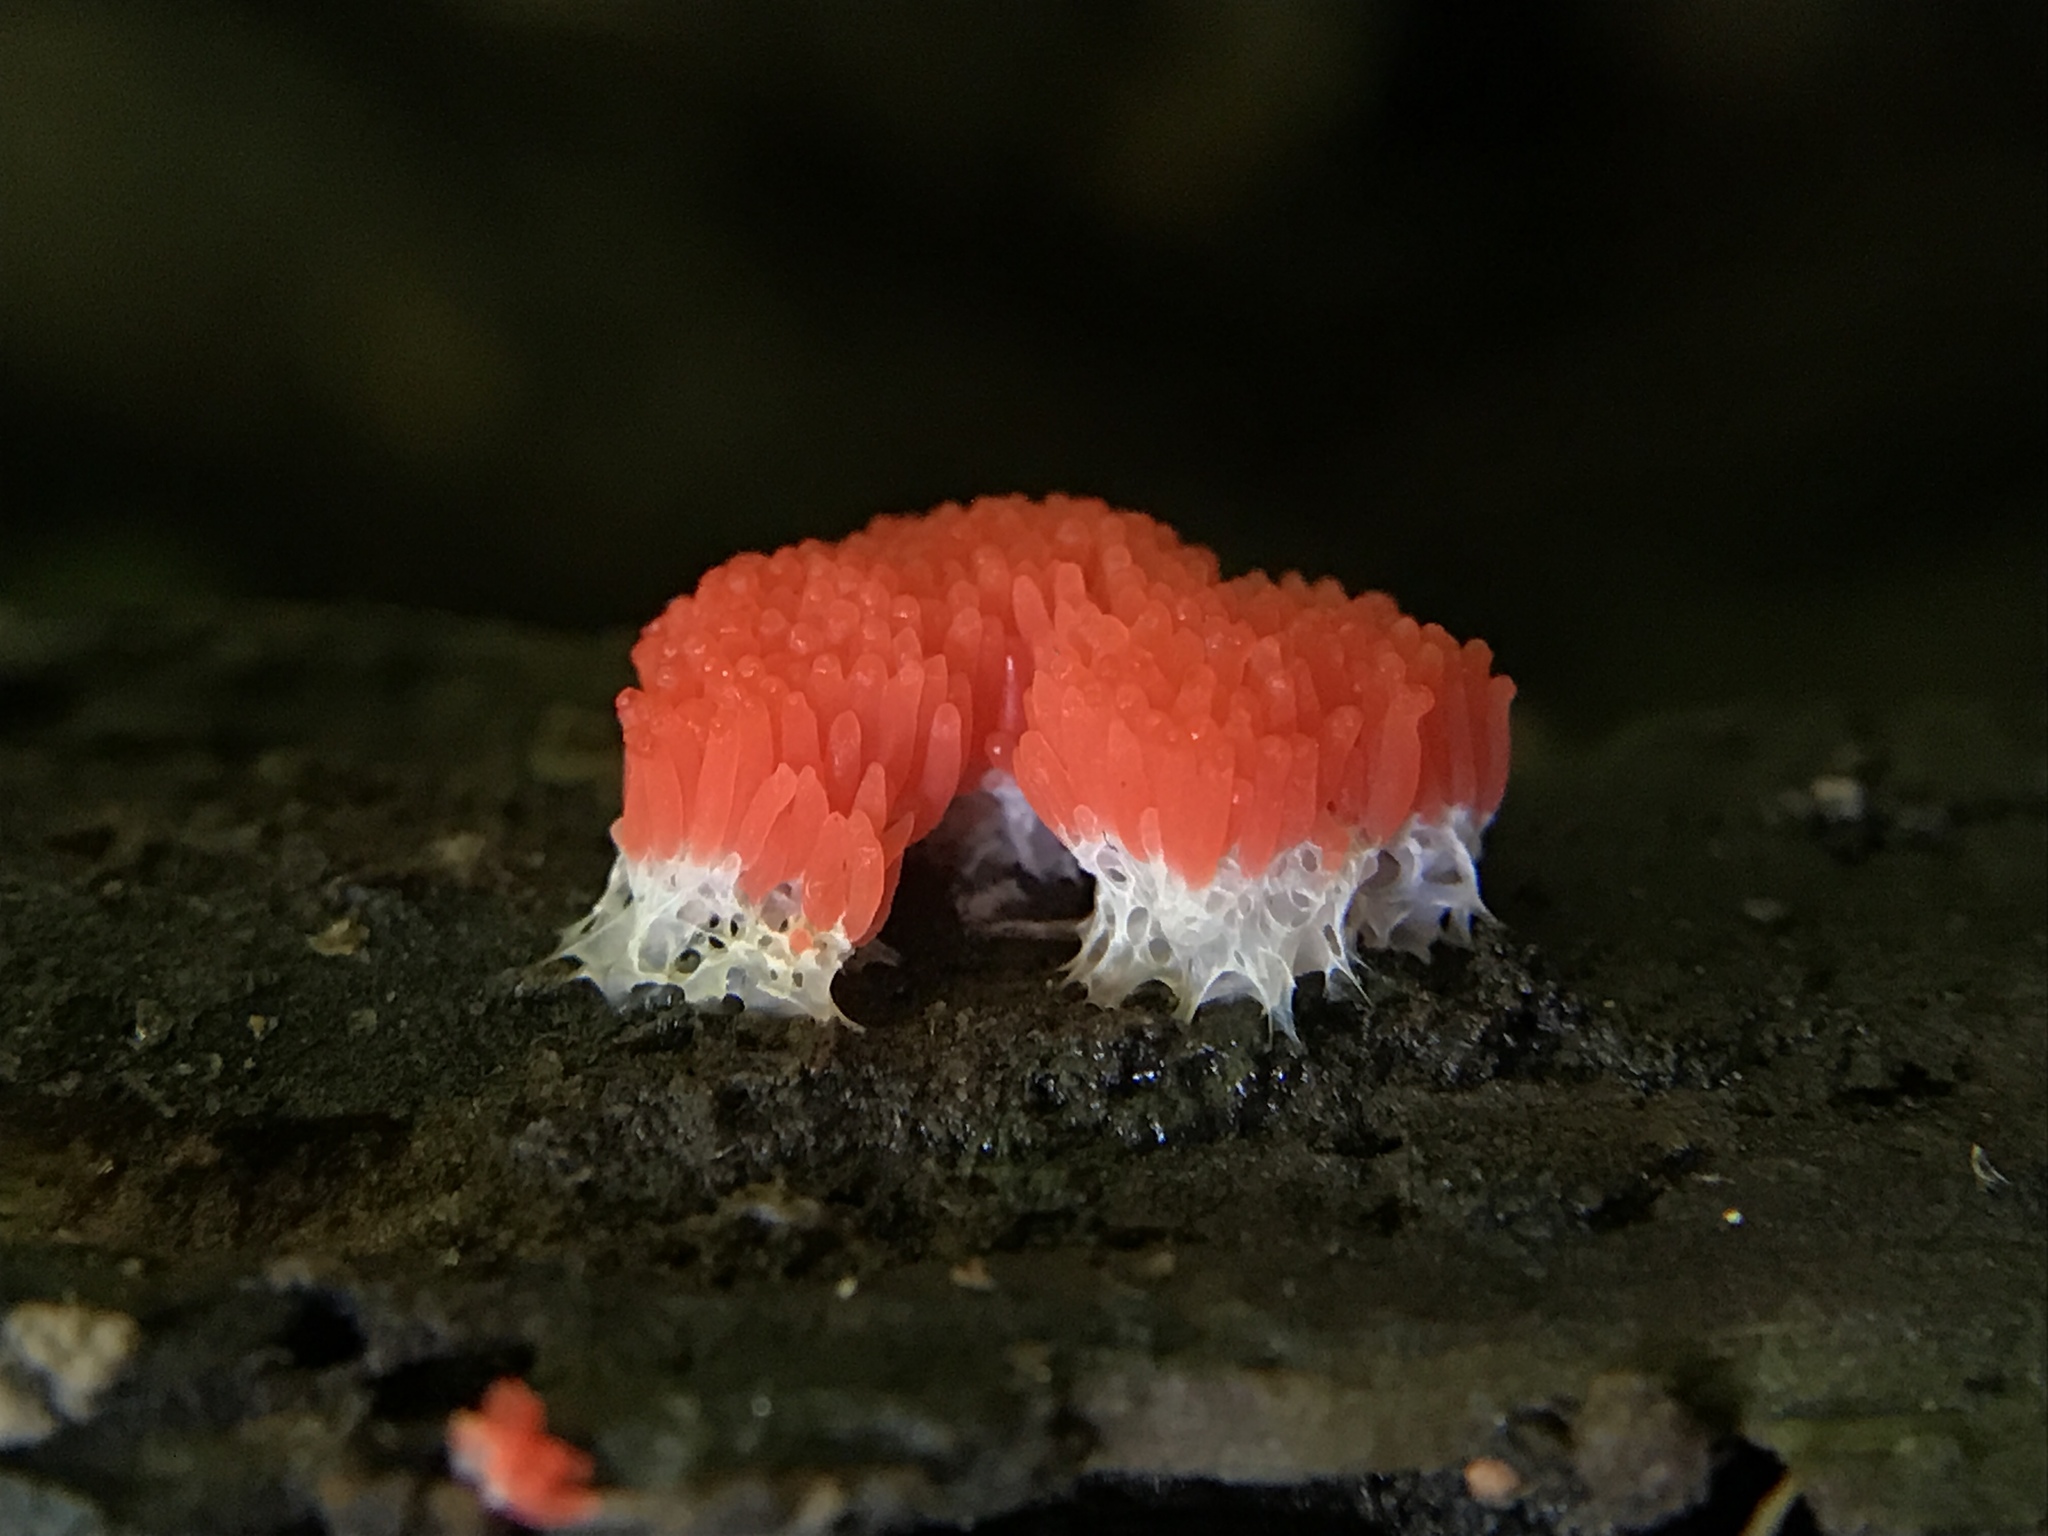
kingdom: Protozoa
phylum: Mycetozoa
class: Myxomycetes
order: Cribrariales
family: Tubiferaceae
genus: Tubifera
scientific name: Tubifera ferruginosa
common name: Red raspberry slime mold
